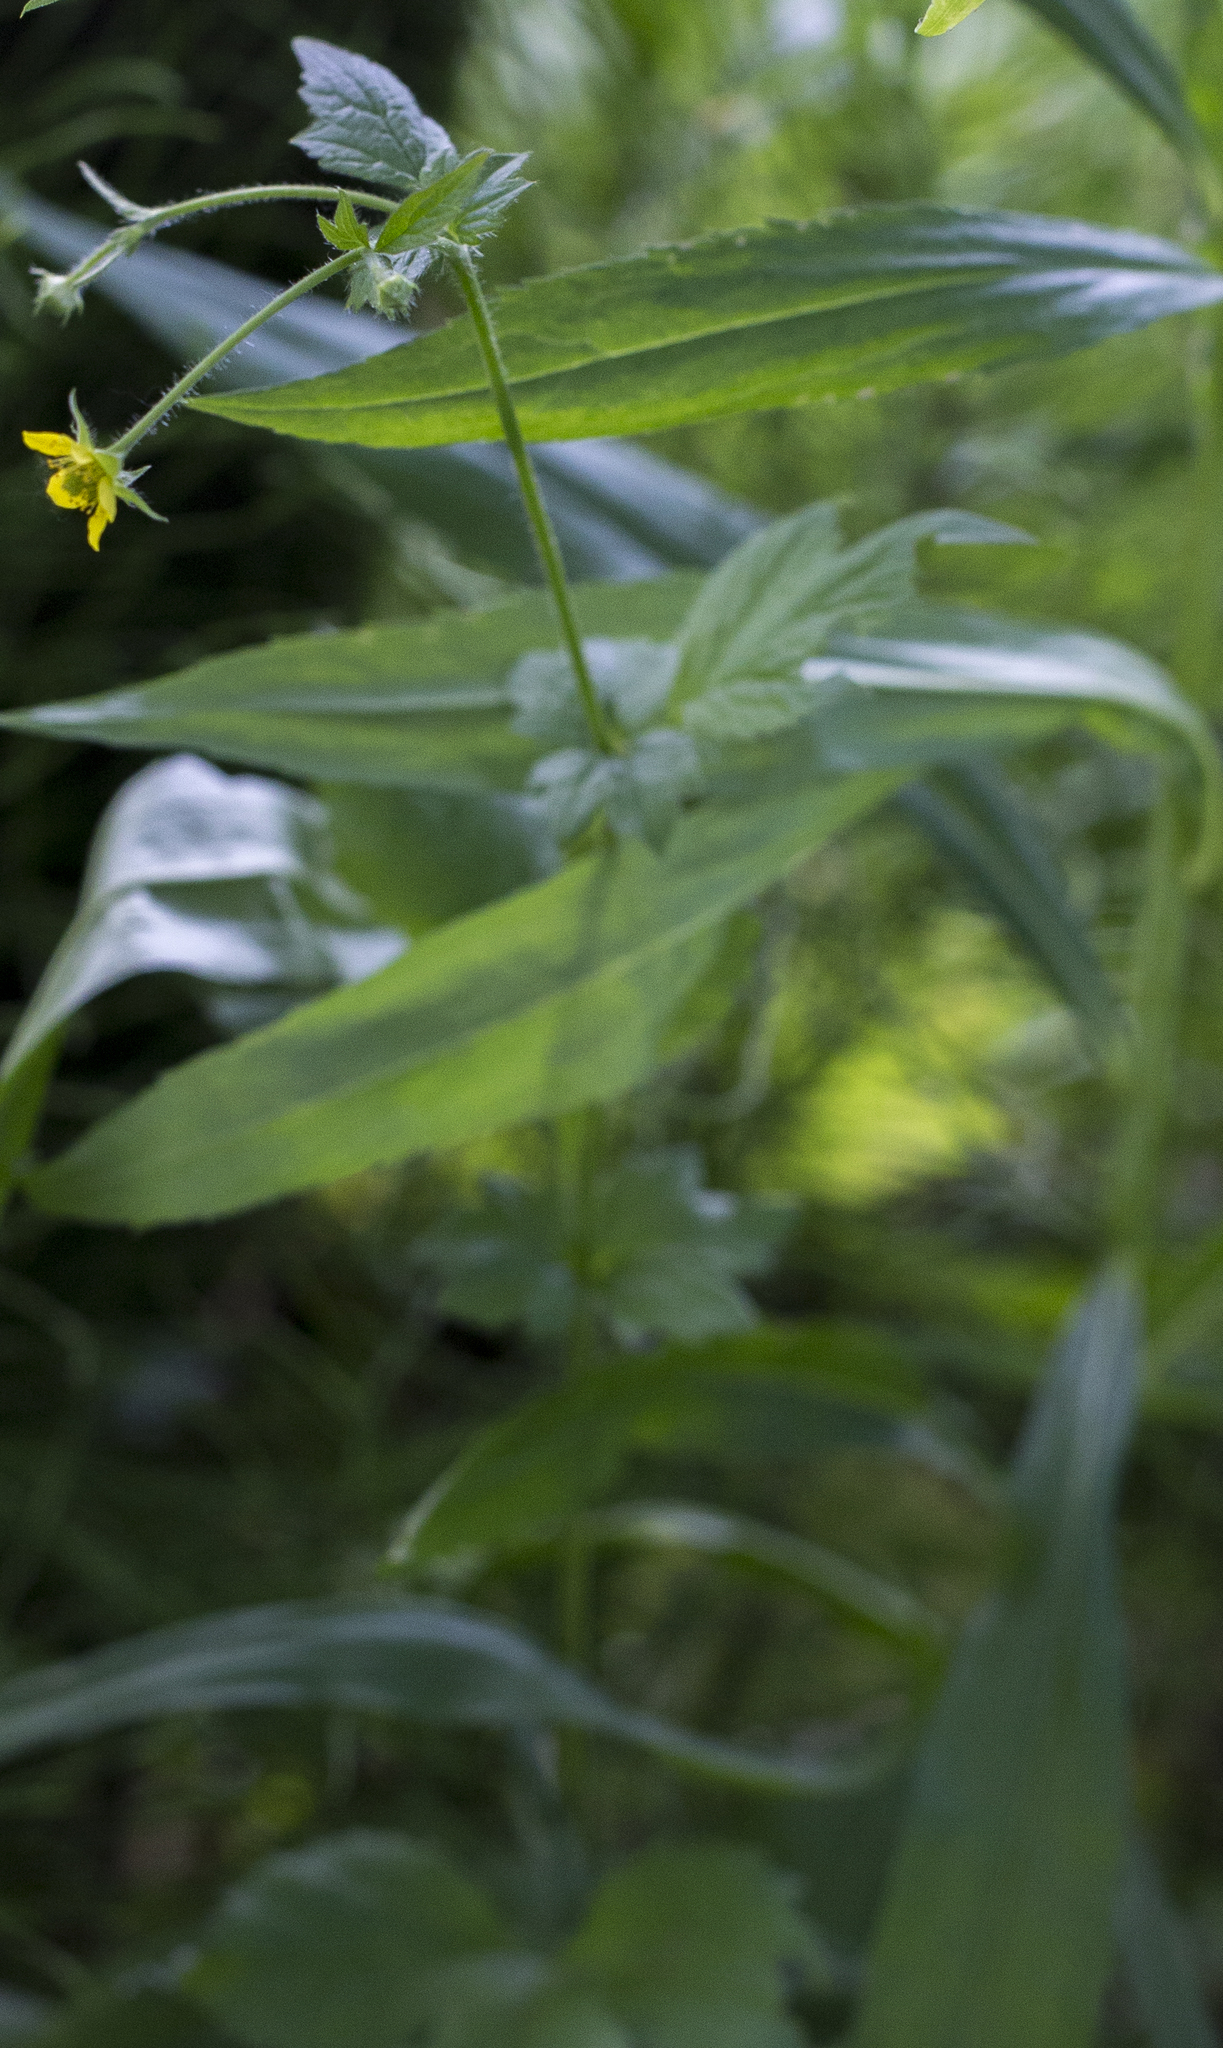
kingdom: Plantae
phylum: Tracheophyta
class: Magnoliopsida
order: Rosales
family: Rosaceae
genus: Geum
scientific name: Geum urbanum
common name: Wood avens
